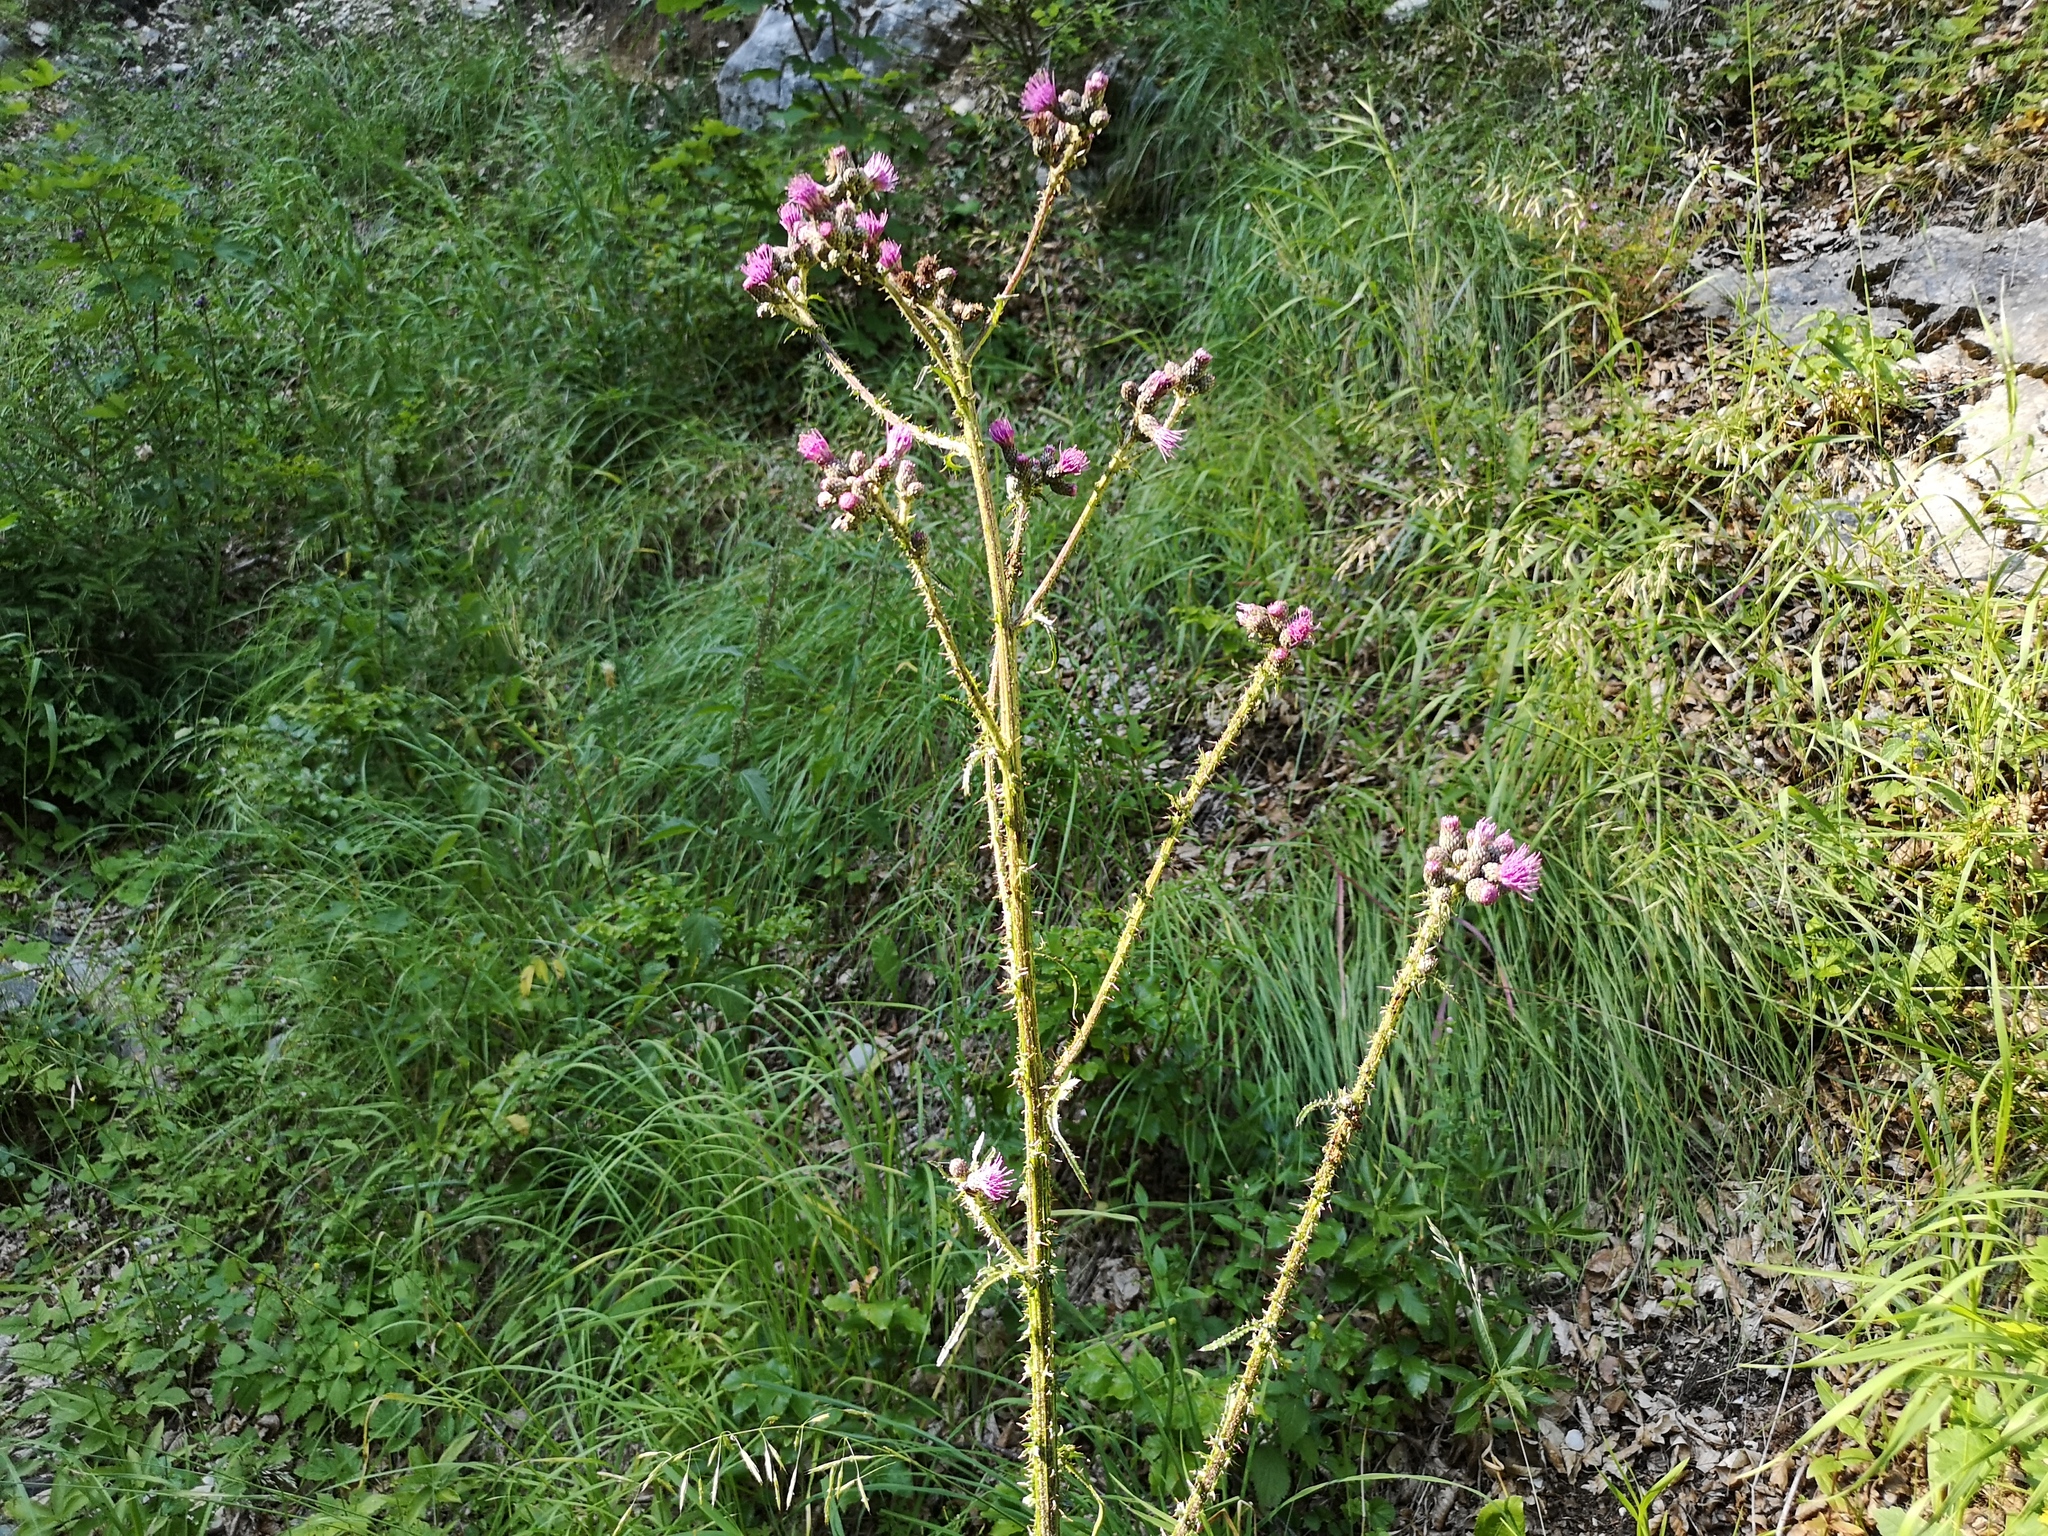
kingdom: Plantae
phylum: Tracheophyta
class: Magnoliopsida
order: Asterales
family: Asteraceae
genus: Cirsium
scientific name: Cirsium palustre
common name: Marsh thistle
